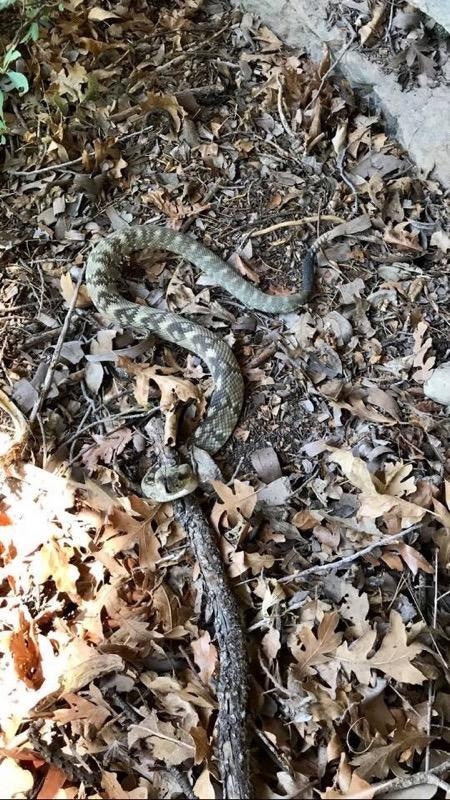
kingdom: Animalia
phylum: Chordata
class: Squamata
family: Viperidae
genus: Crotalus
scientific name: Crotalus ornatus
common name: Black-tailed rattlesnake
